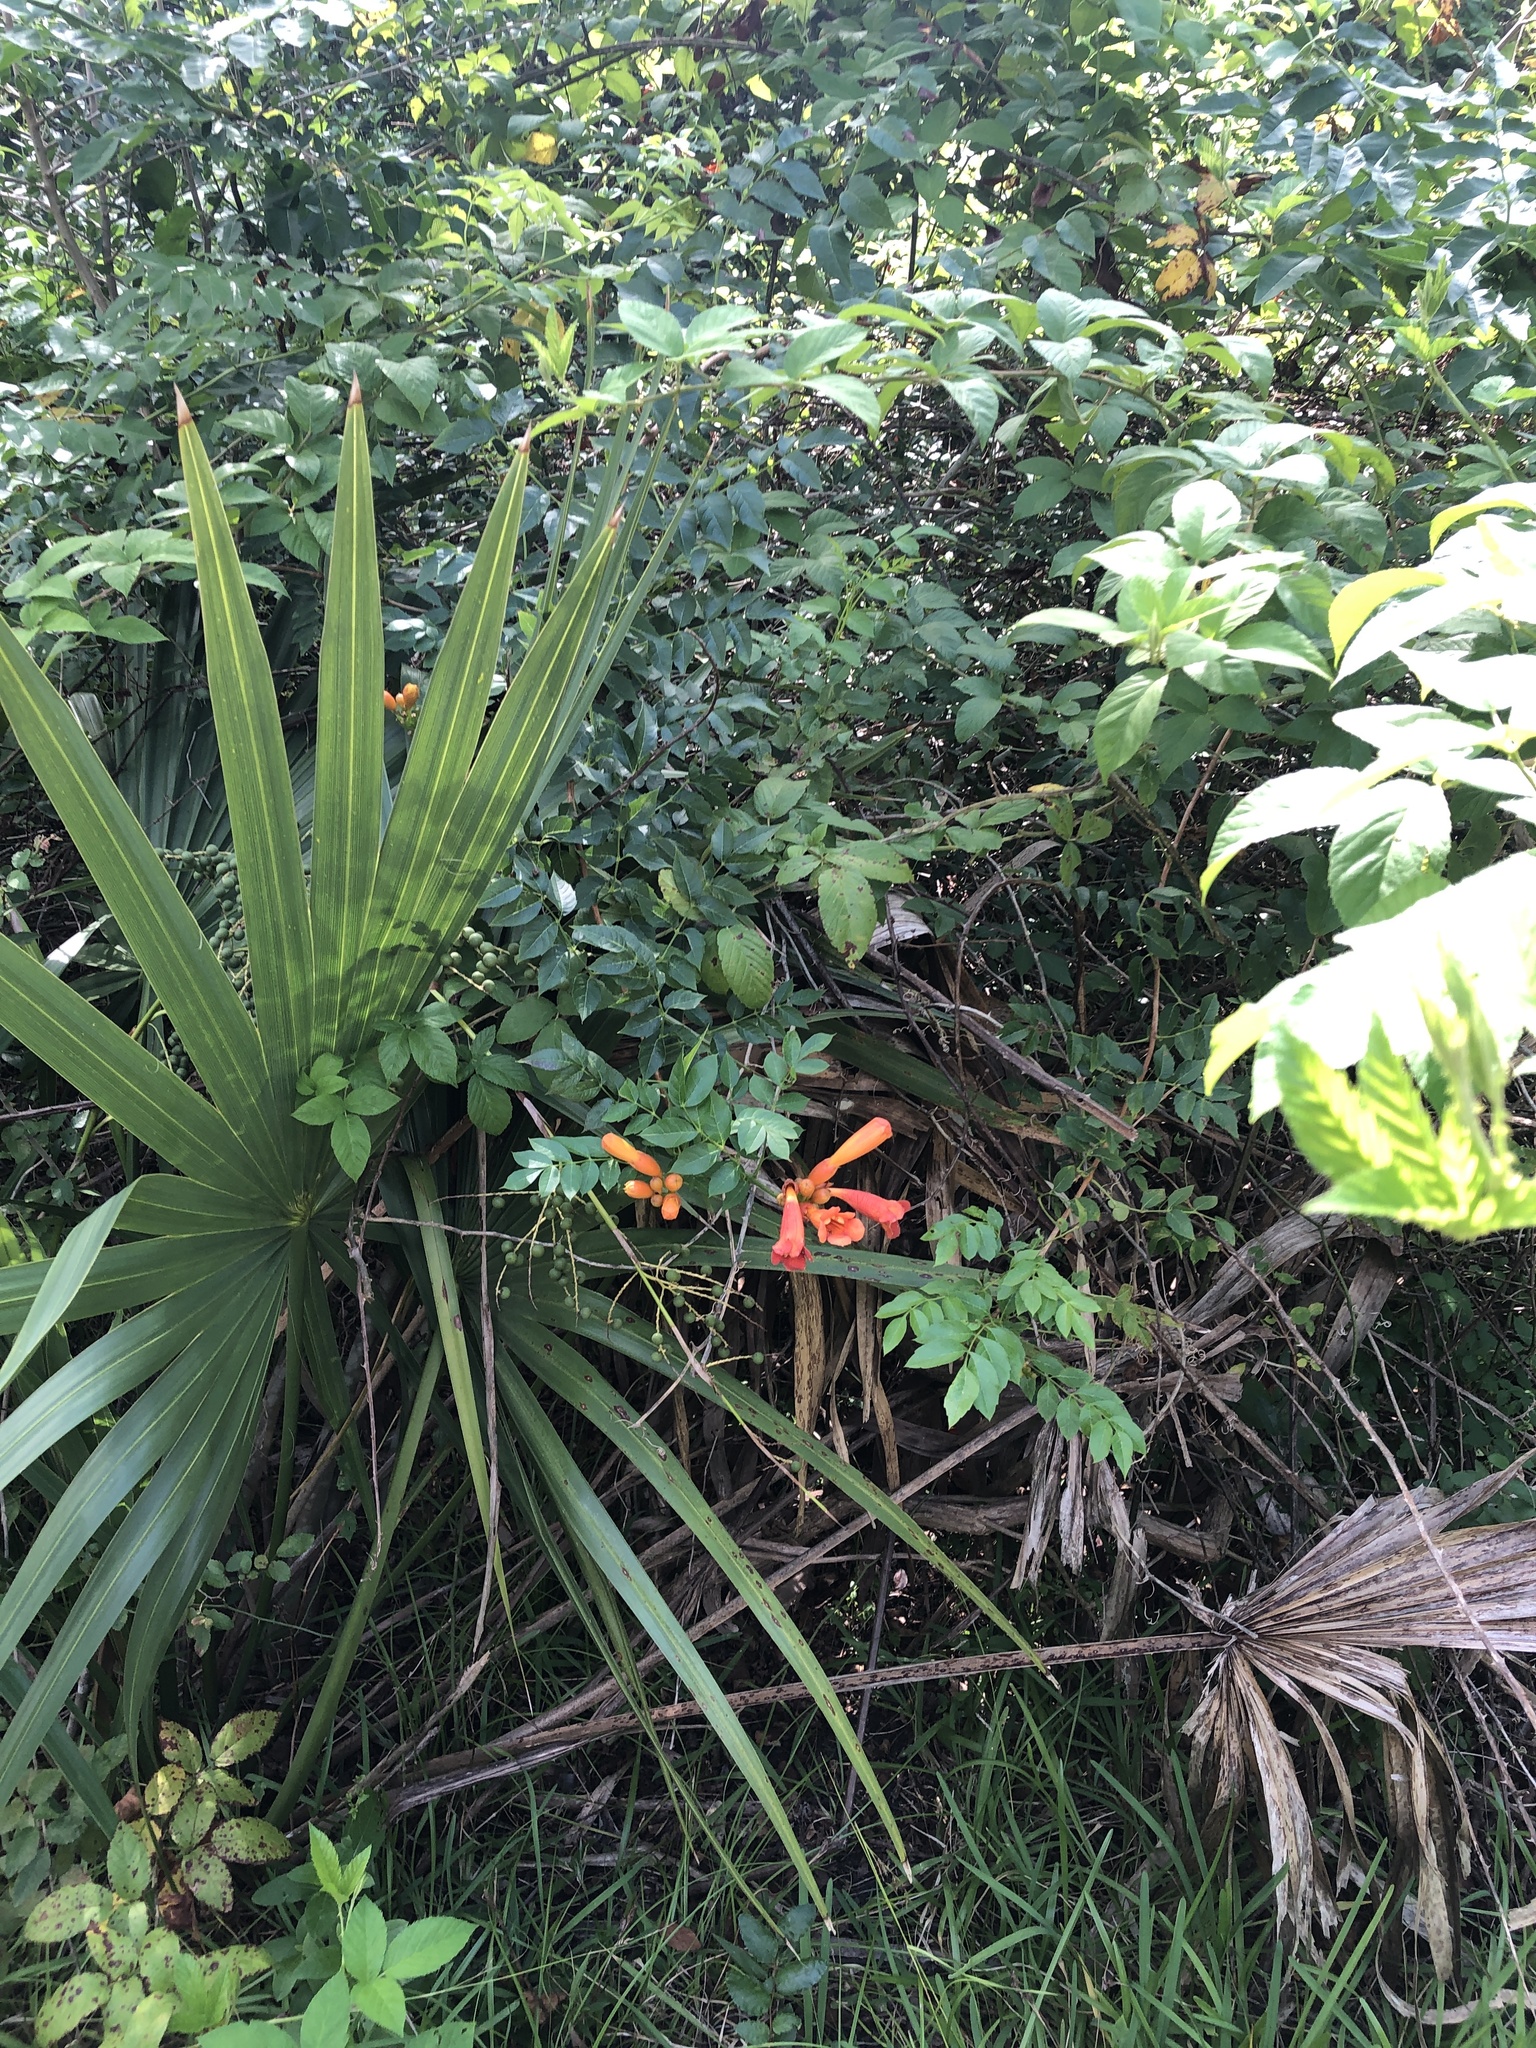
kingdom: Plantae
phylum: Tracheophyta
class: Magnoliopsida
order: Lamiales
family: Bignoniaceae
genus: Campsis
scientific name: Campsis radicans
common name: Trumpet-creeper
